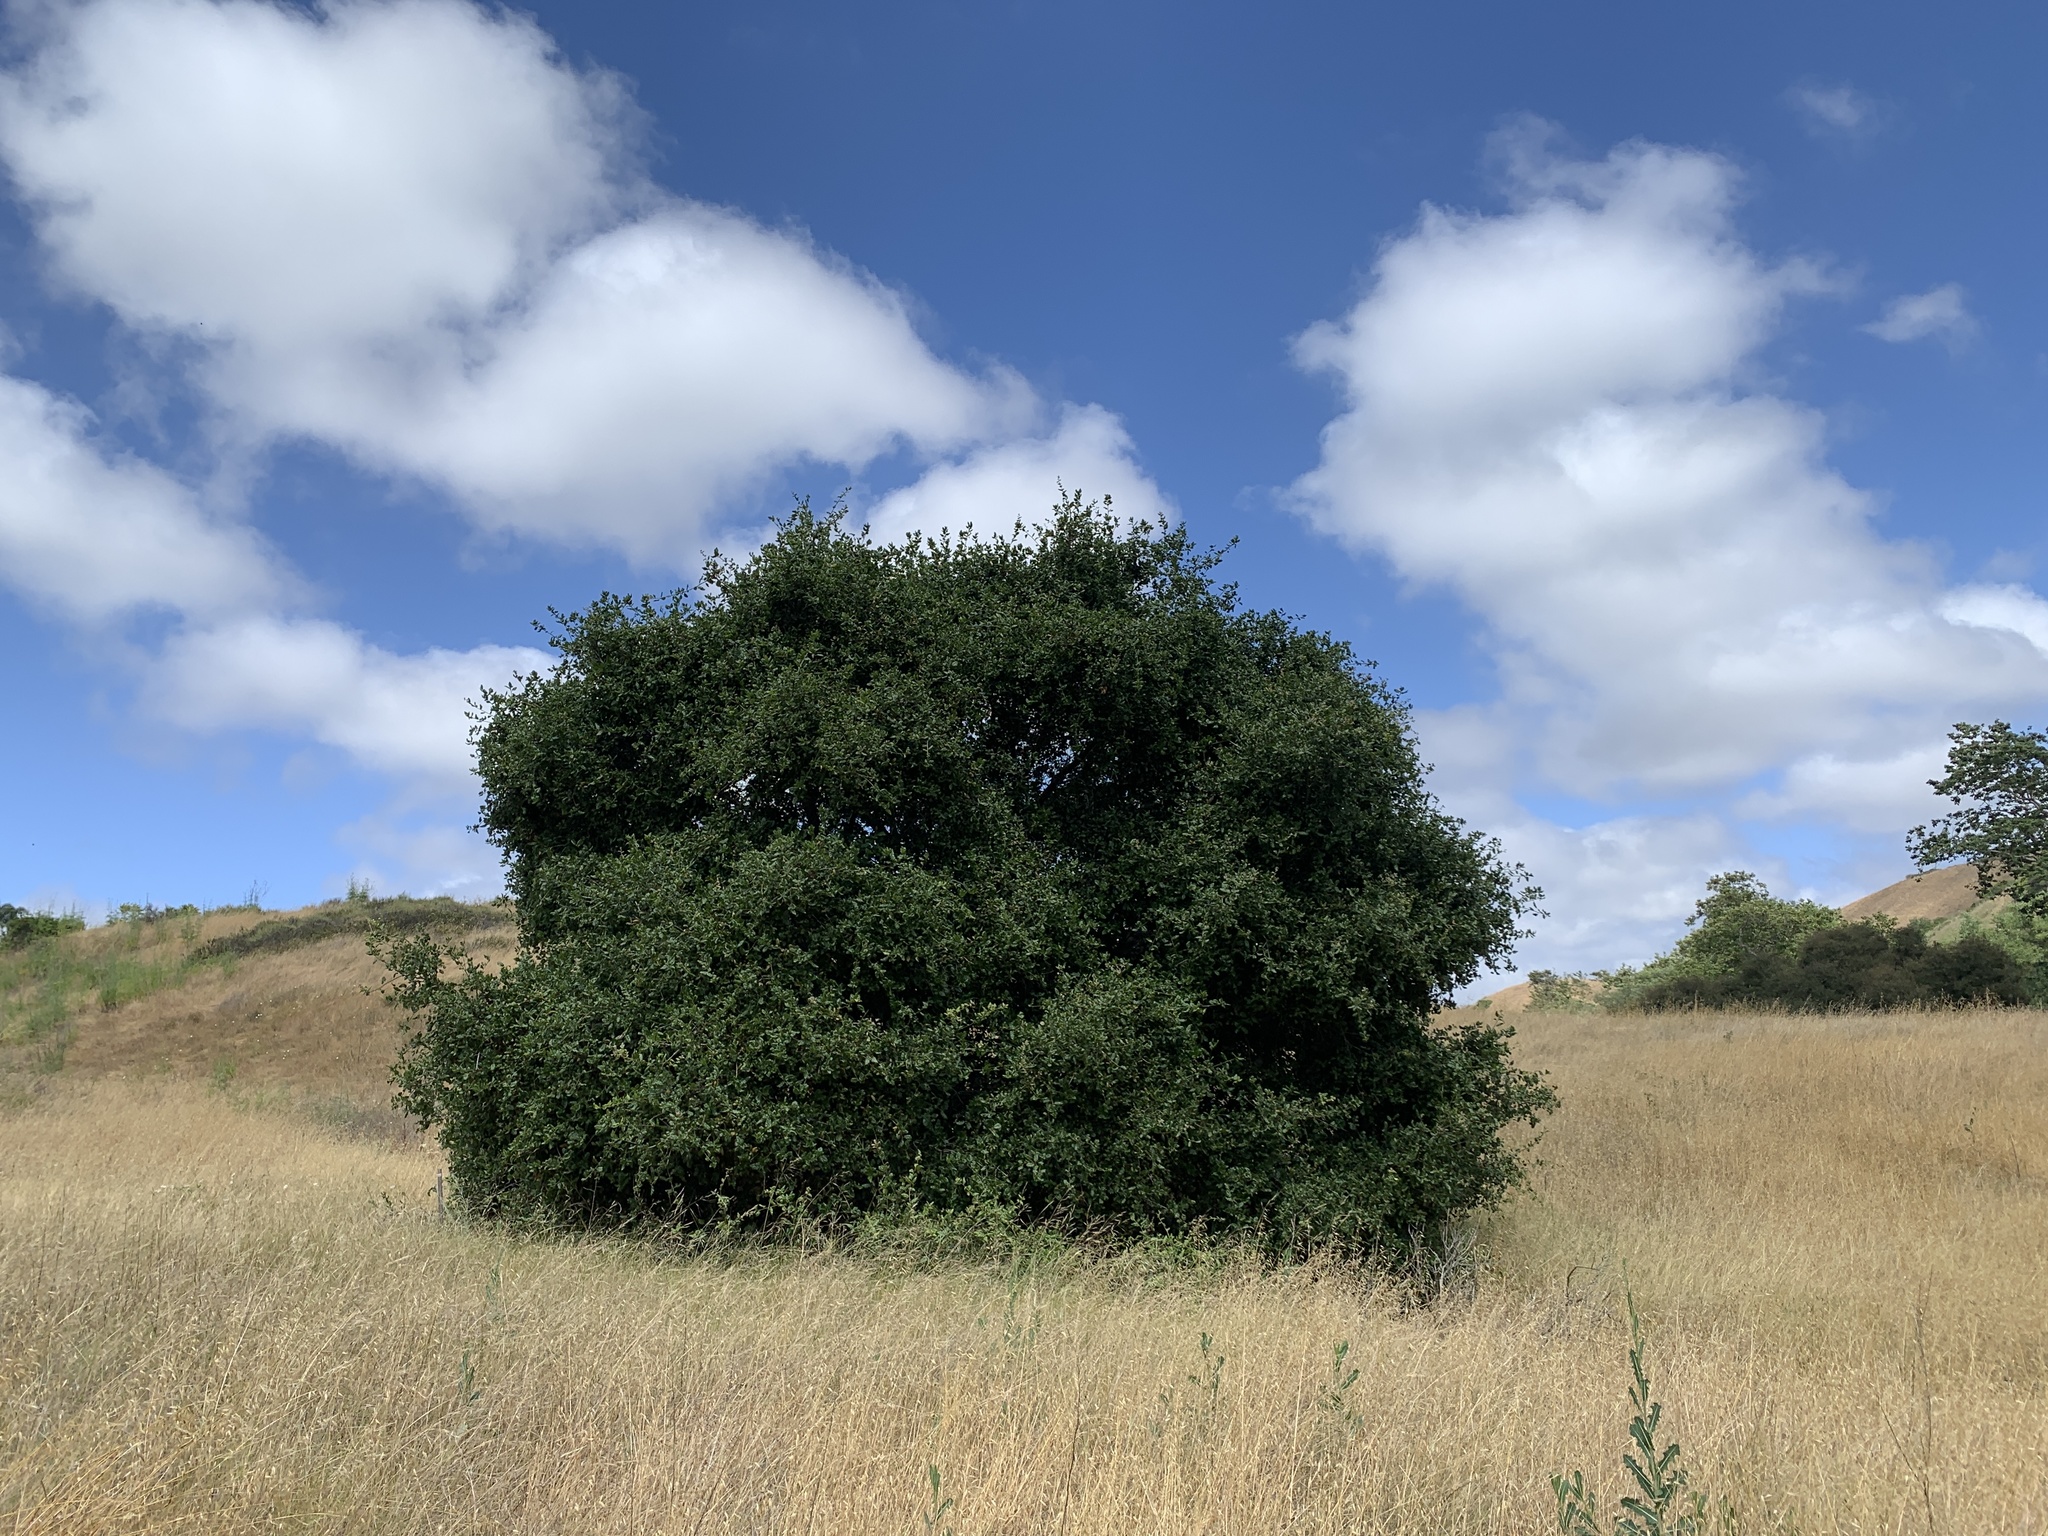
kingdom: Plantae
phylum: Tracheophyta
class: Magnoliopsida
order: Fagales
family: Fagaceae
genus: Quercus
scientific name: Quercus agrifolia
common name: California live oak
